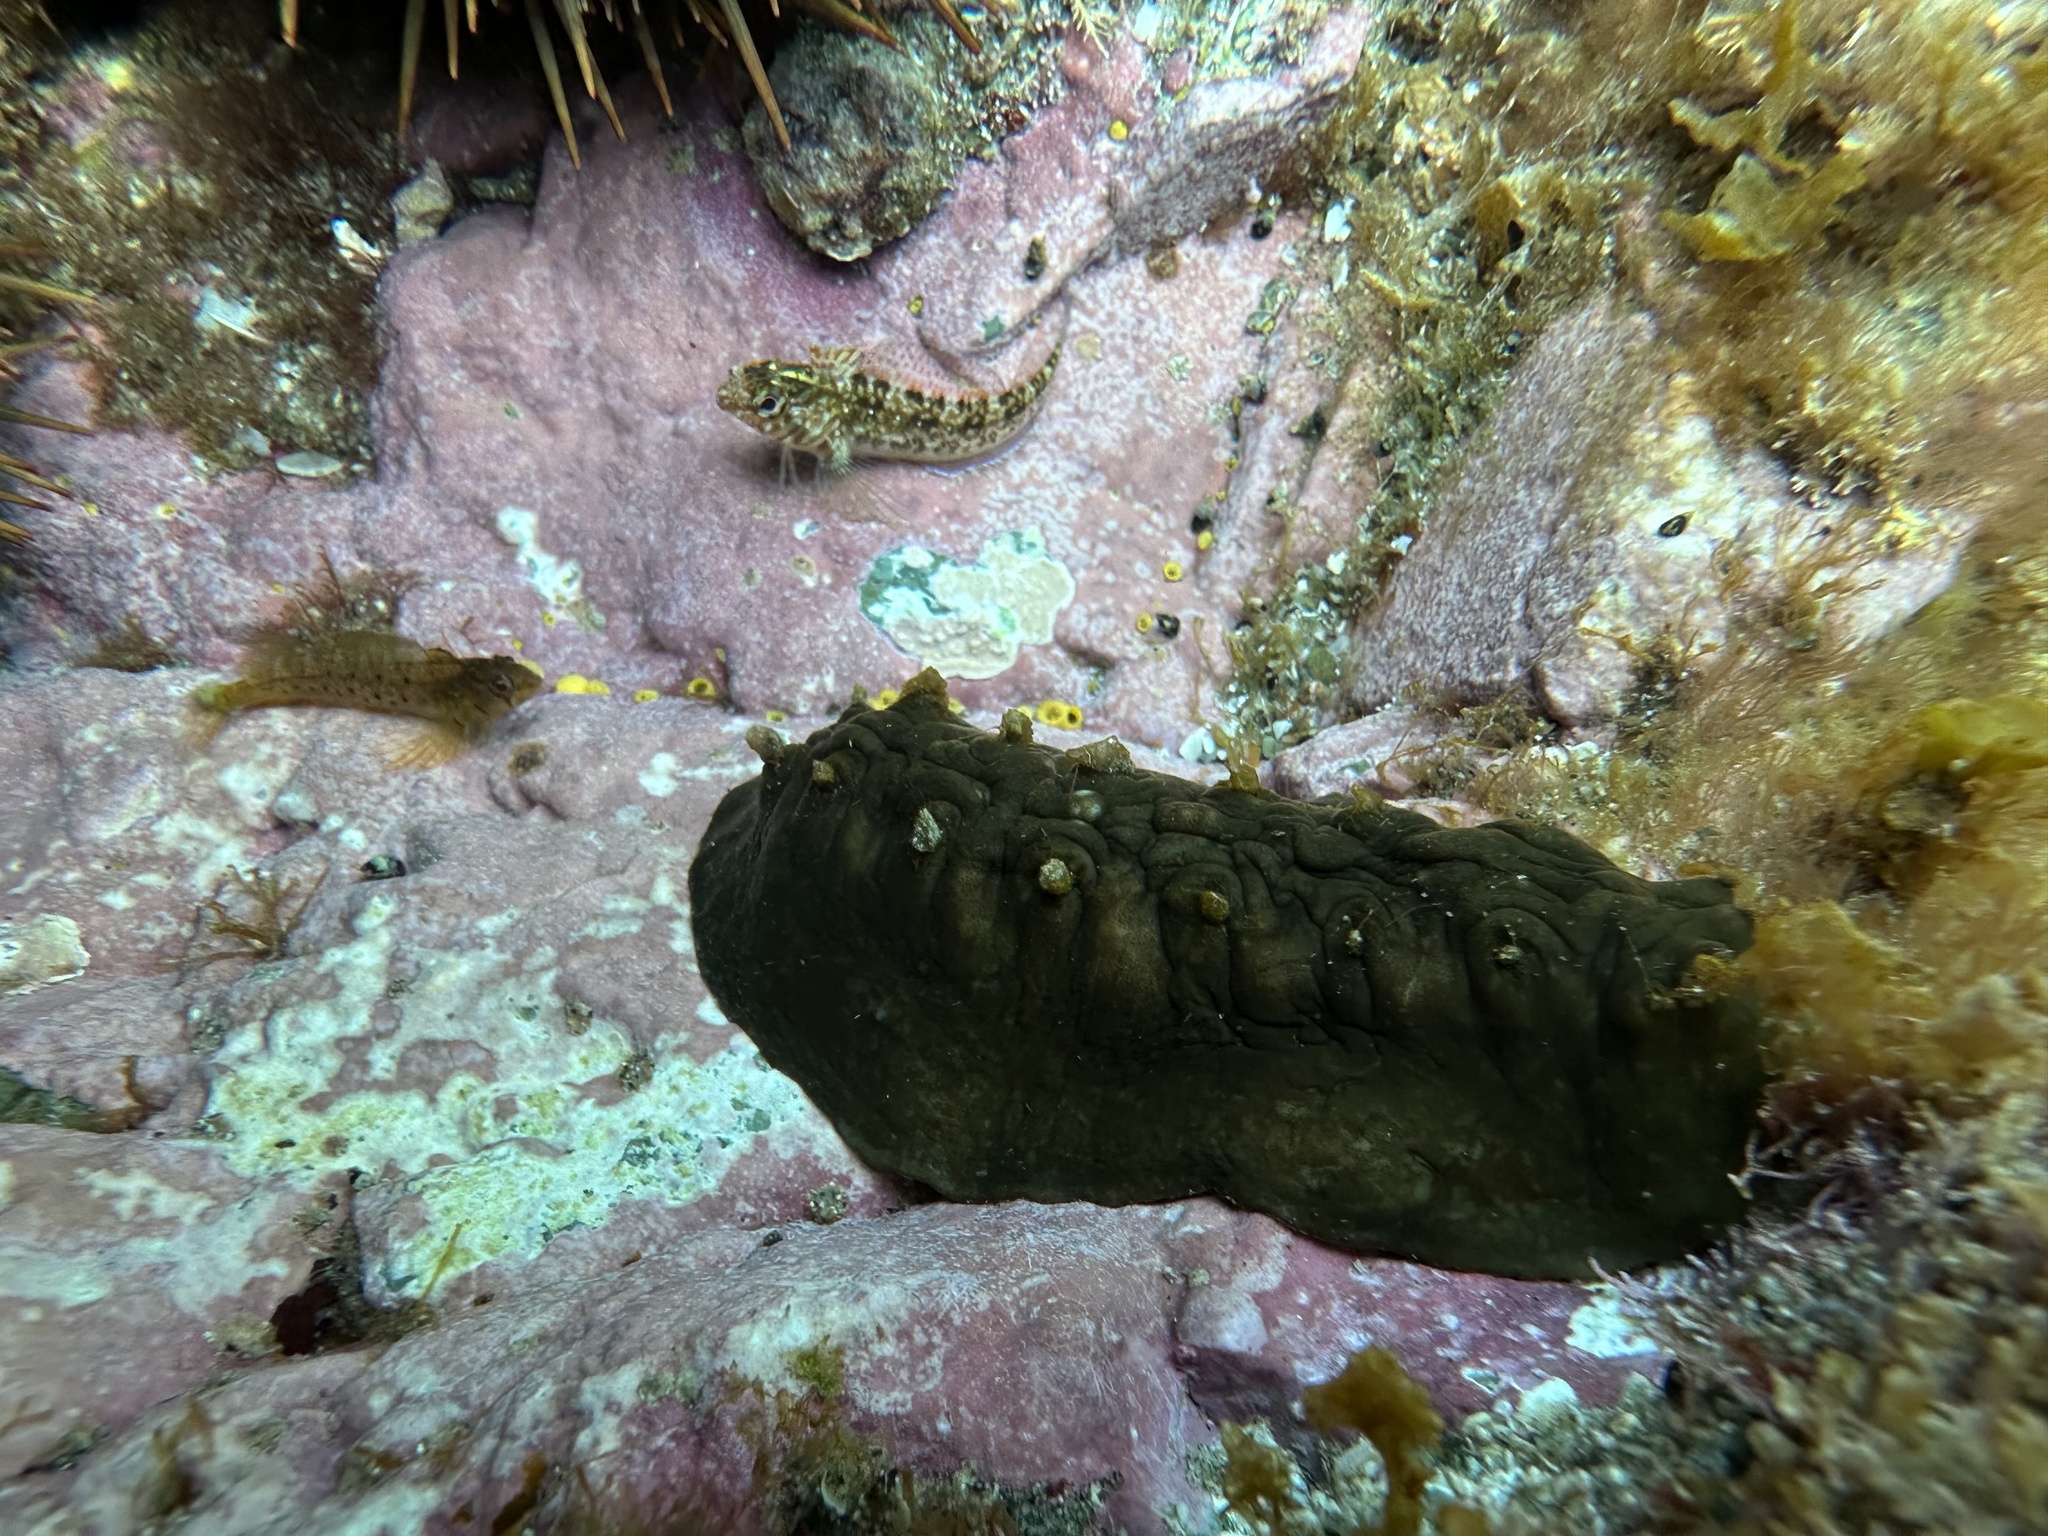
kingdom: Animalia
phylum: Mollusca
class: Polyplacophora
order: Chitonida
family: Acanthochitonidae
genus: Cryptoconchus
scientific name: Cryptoconchus porosus
